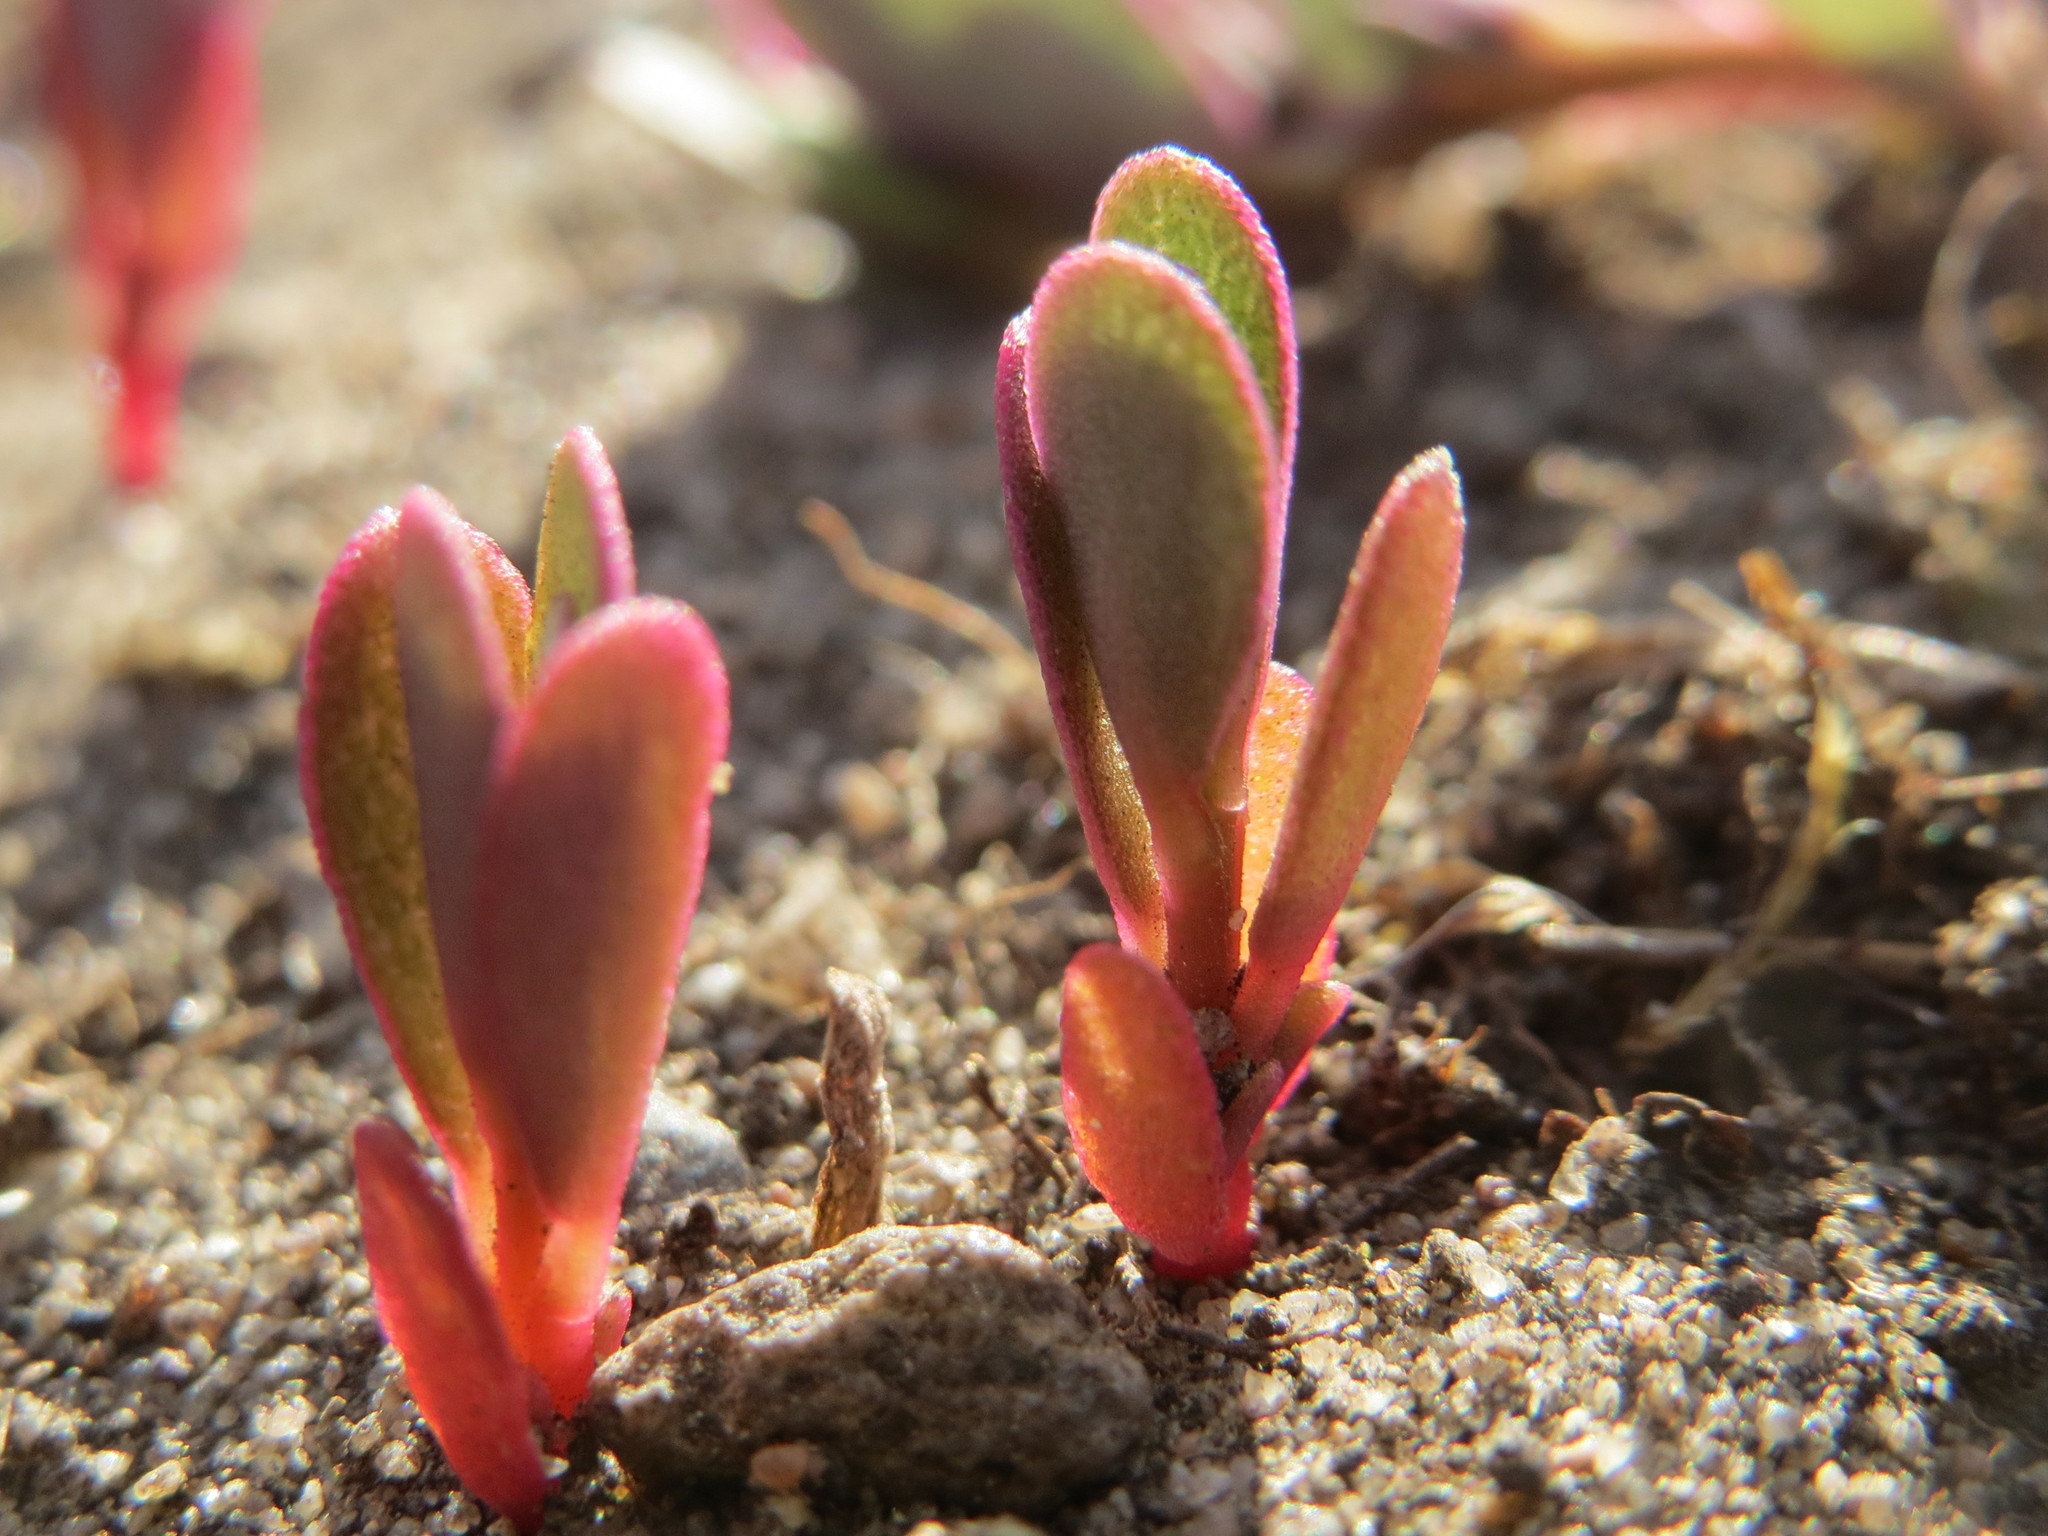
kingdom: Plantae
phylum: Tracheophyta
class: Magnoliopsida
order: Caryophyllales
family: Portulacaceae
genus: Portulaca
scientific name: Portulaca oleracea
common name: Common purslane
